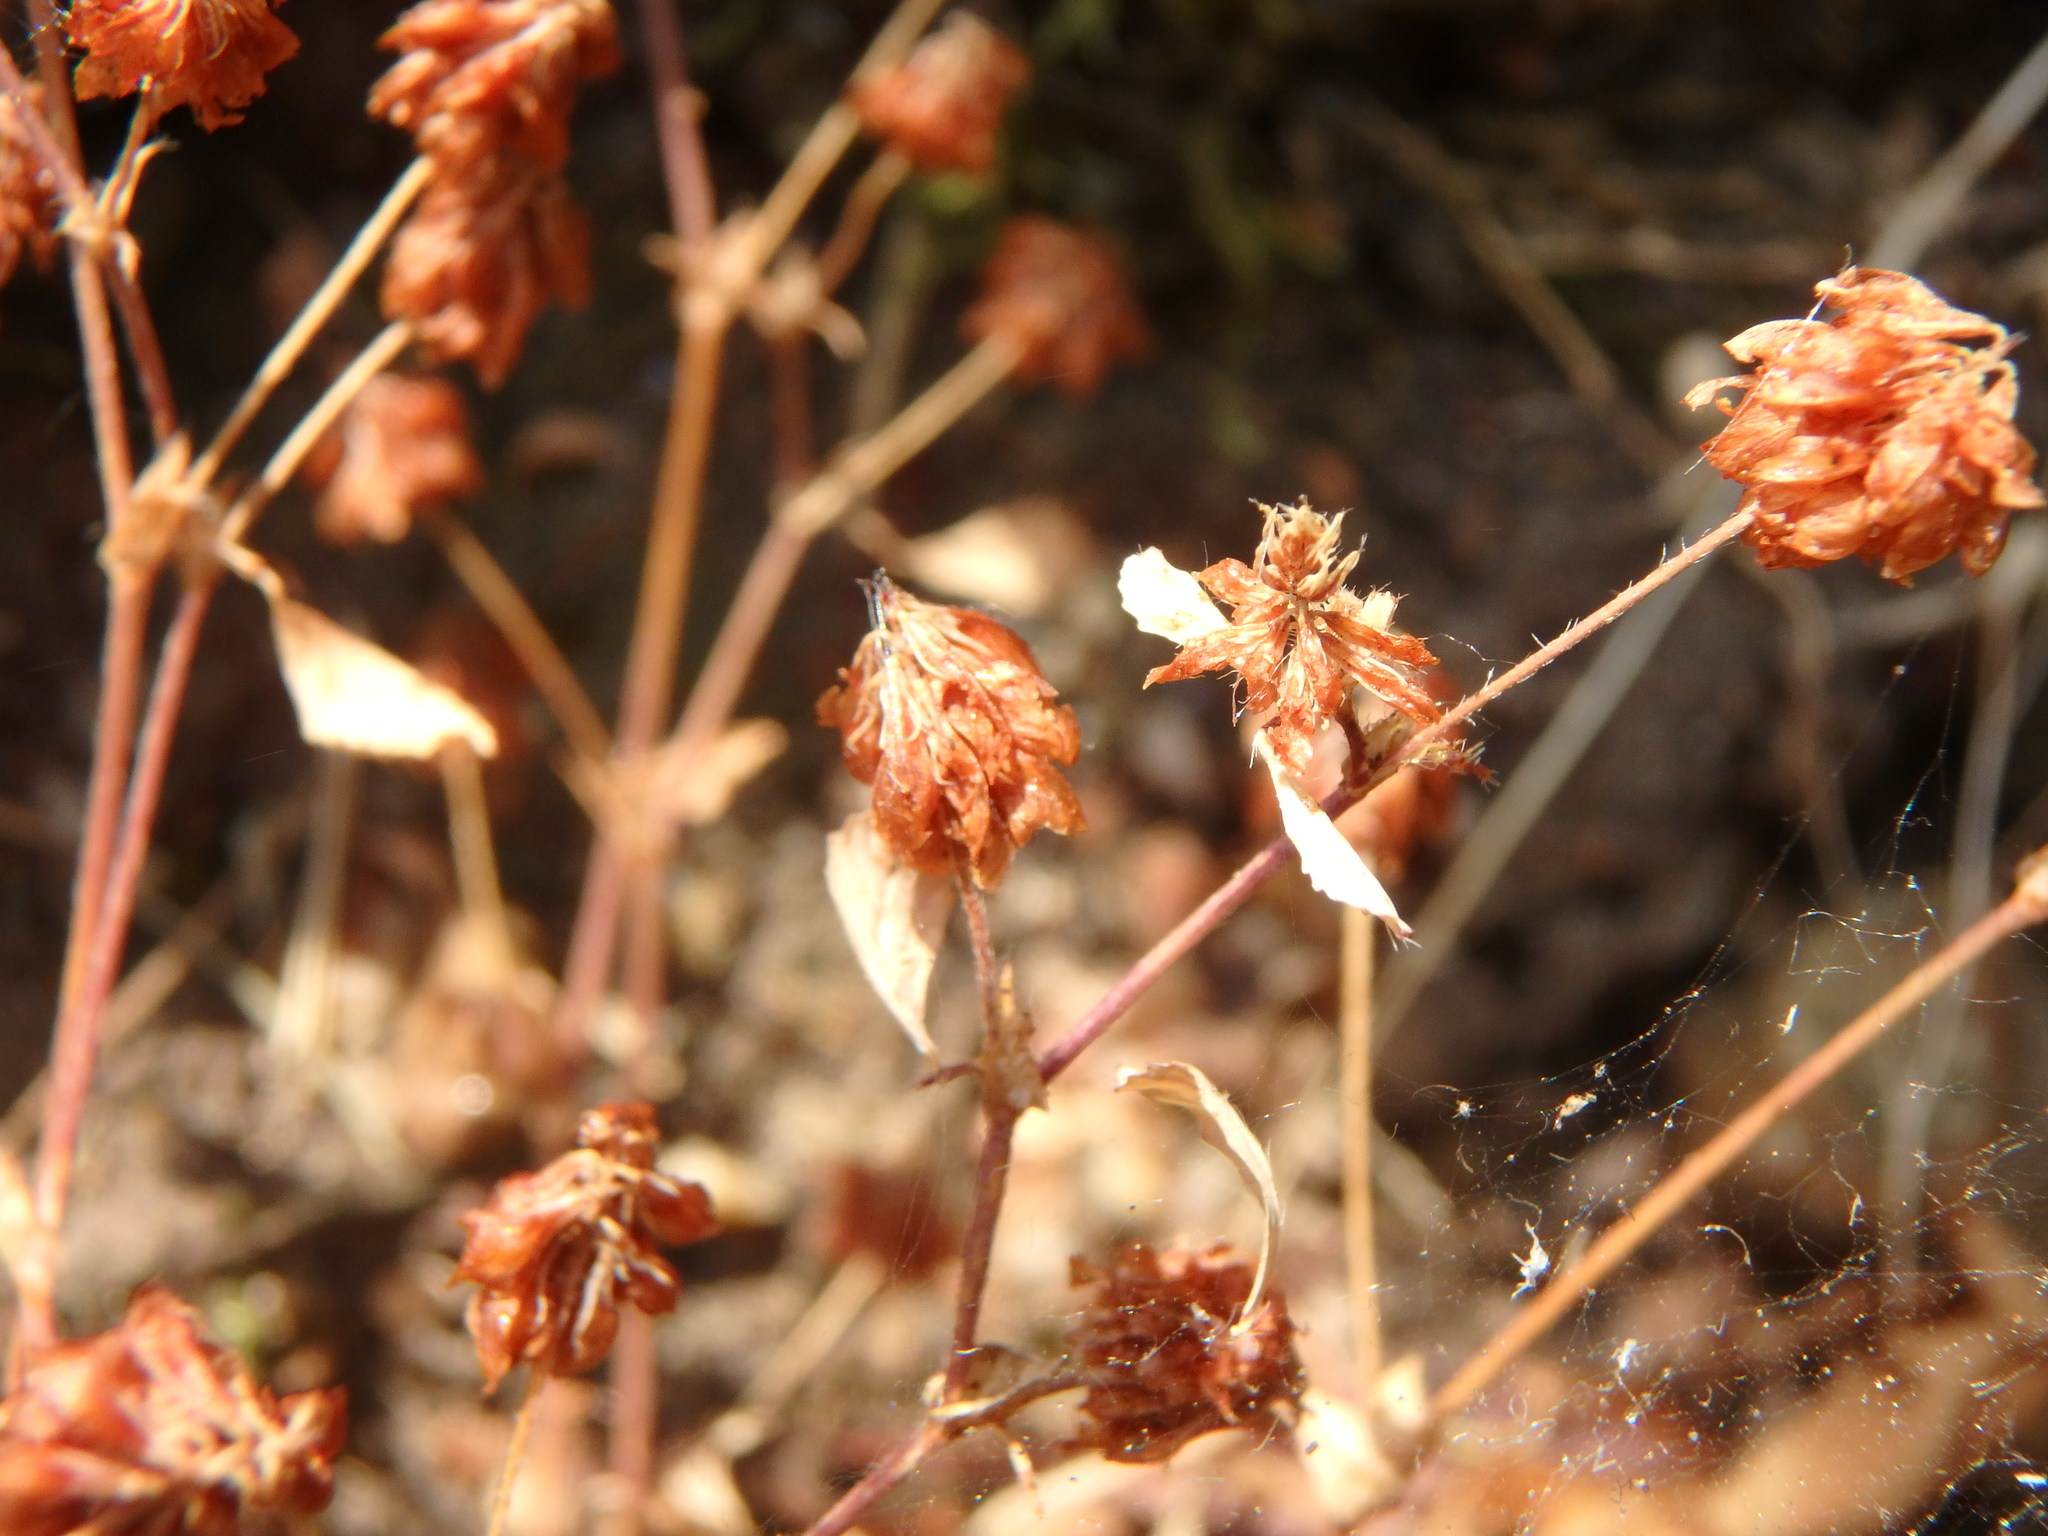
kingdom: Plantae
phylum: Tracheophyta
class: Magnoliopsida
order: Fabales
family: Fabaceae
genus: Trifolium
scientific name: Trifolium
